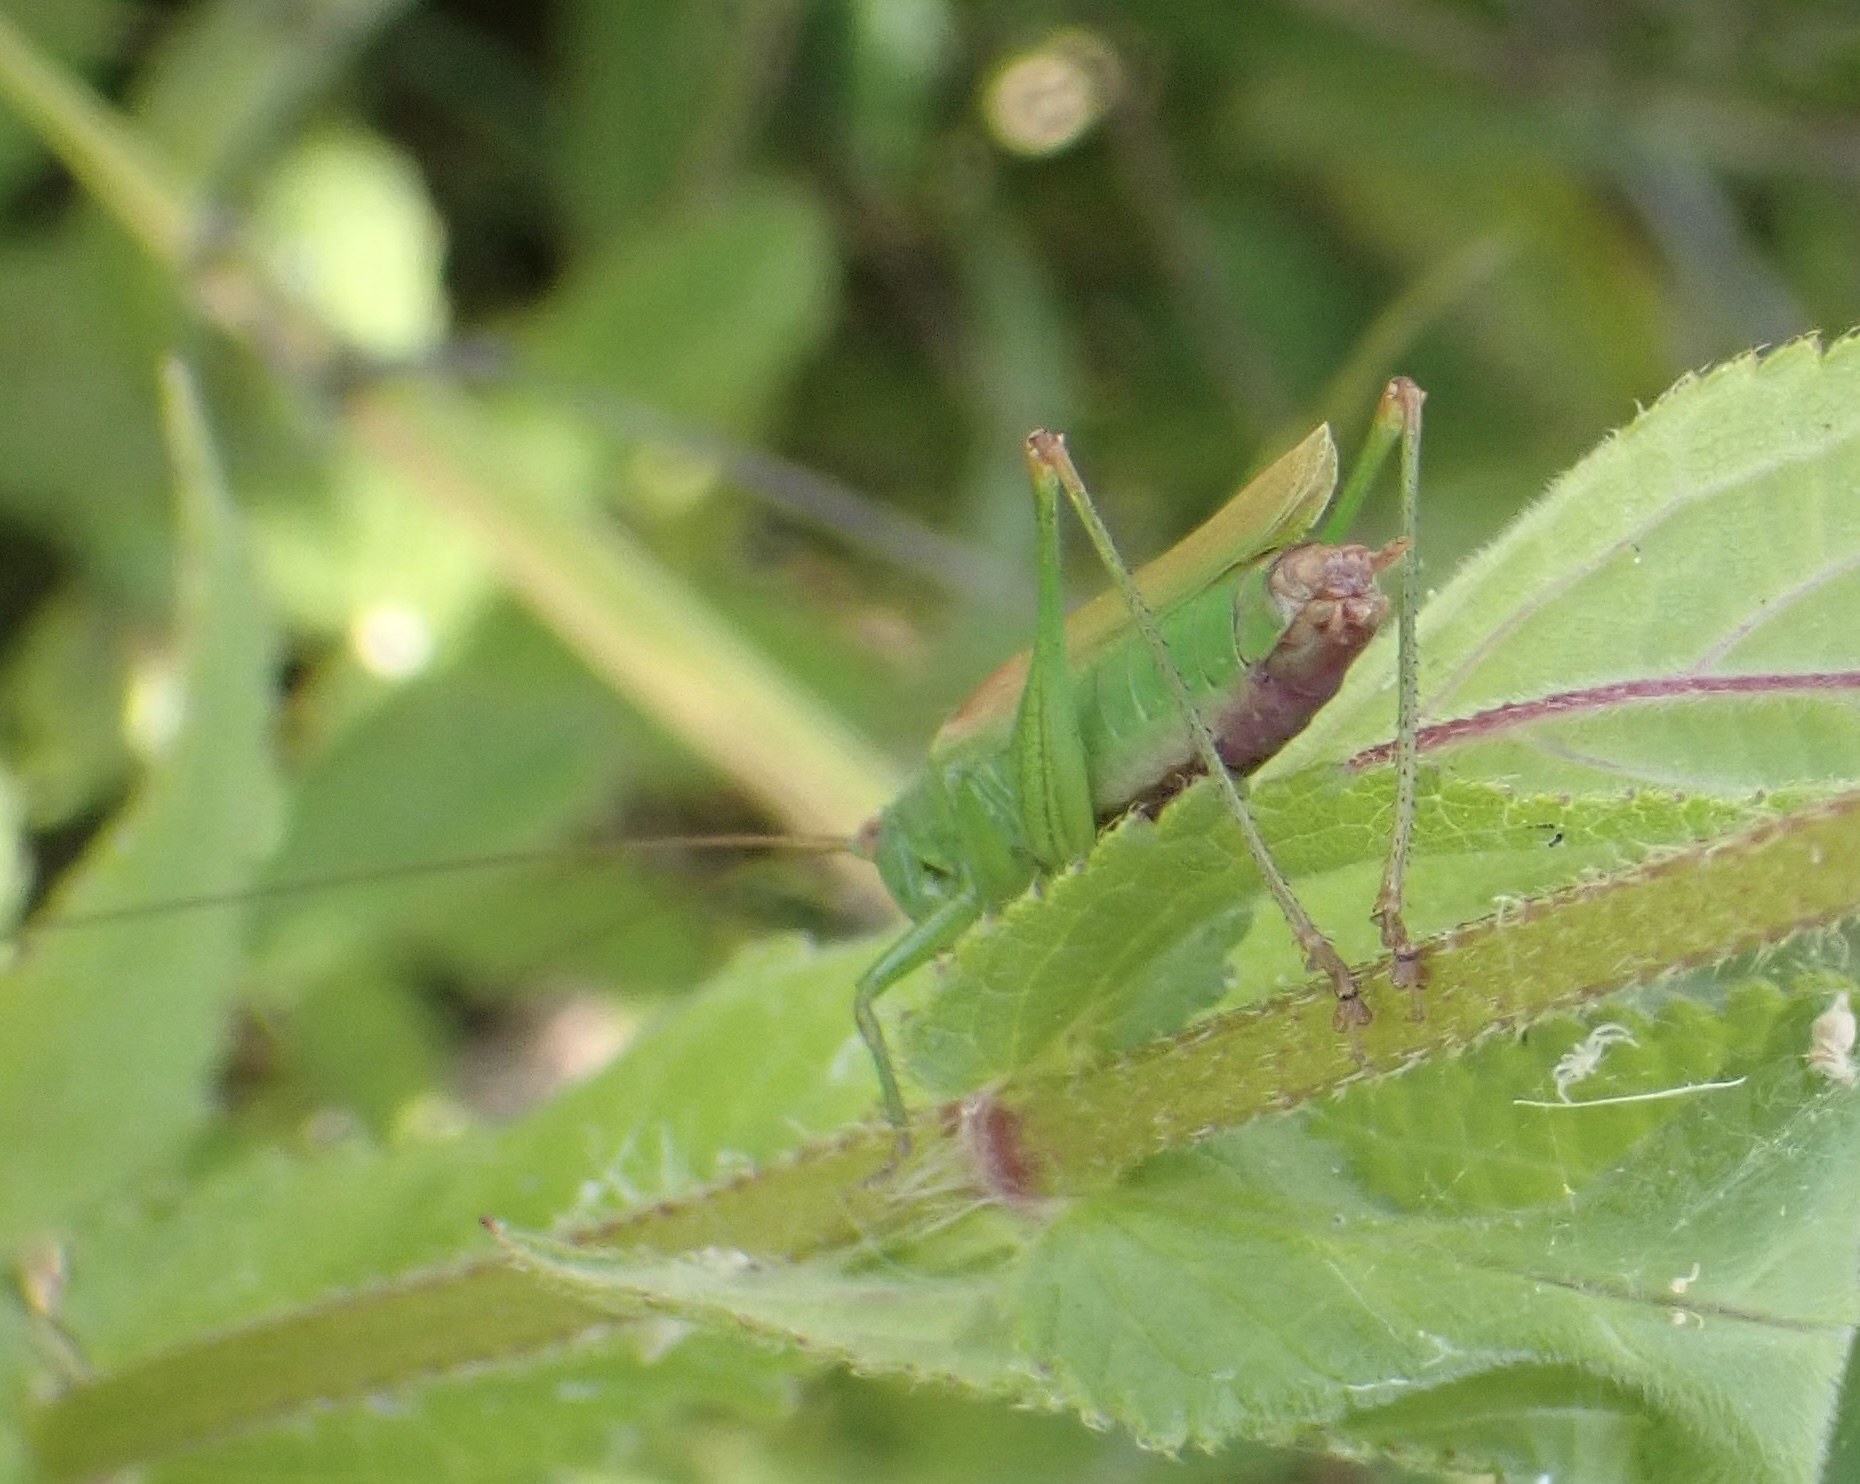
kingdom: Animalia
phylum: Arthropoda
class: Insecta
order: Orthoptera
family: Tettigoniidae
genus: Conocephalus
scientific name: Conocephalus fuscus
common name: Long-winged conehead
